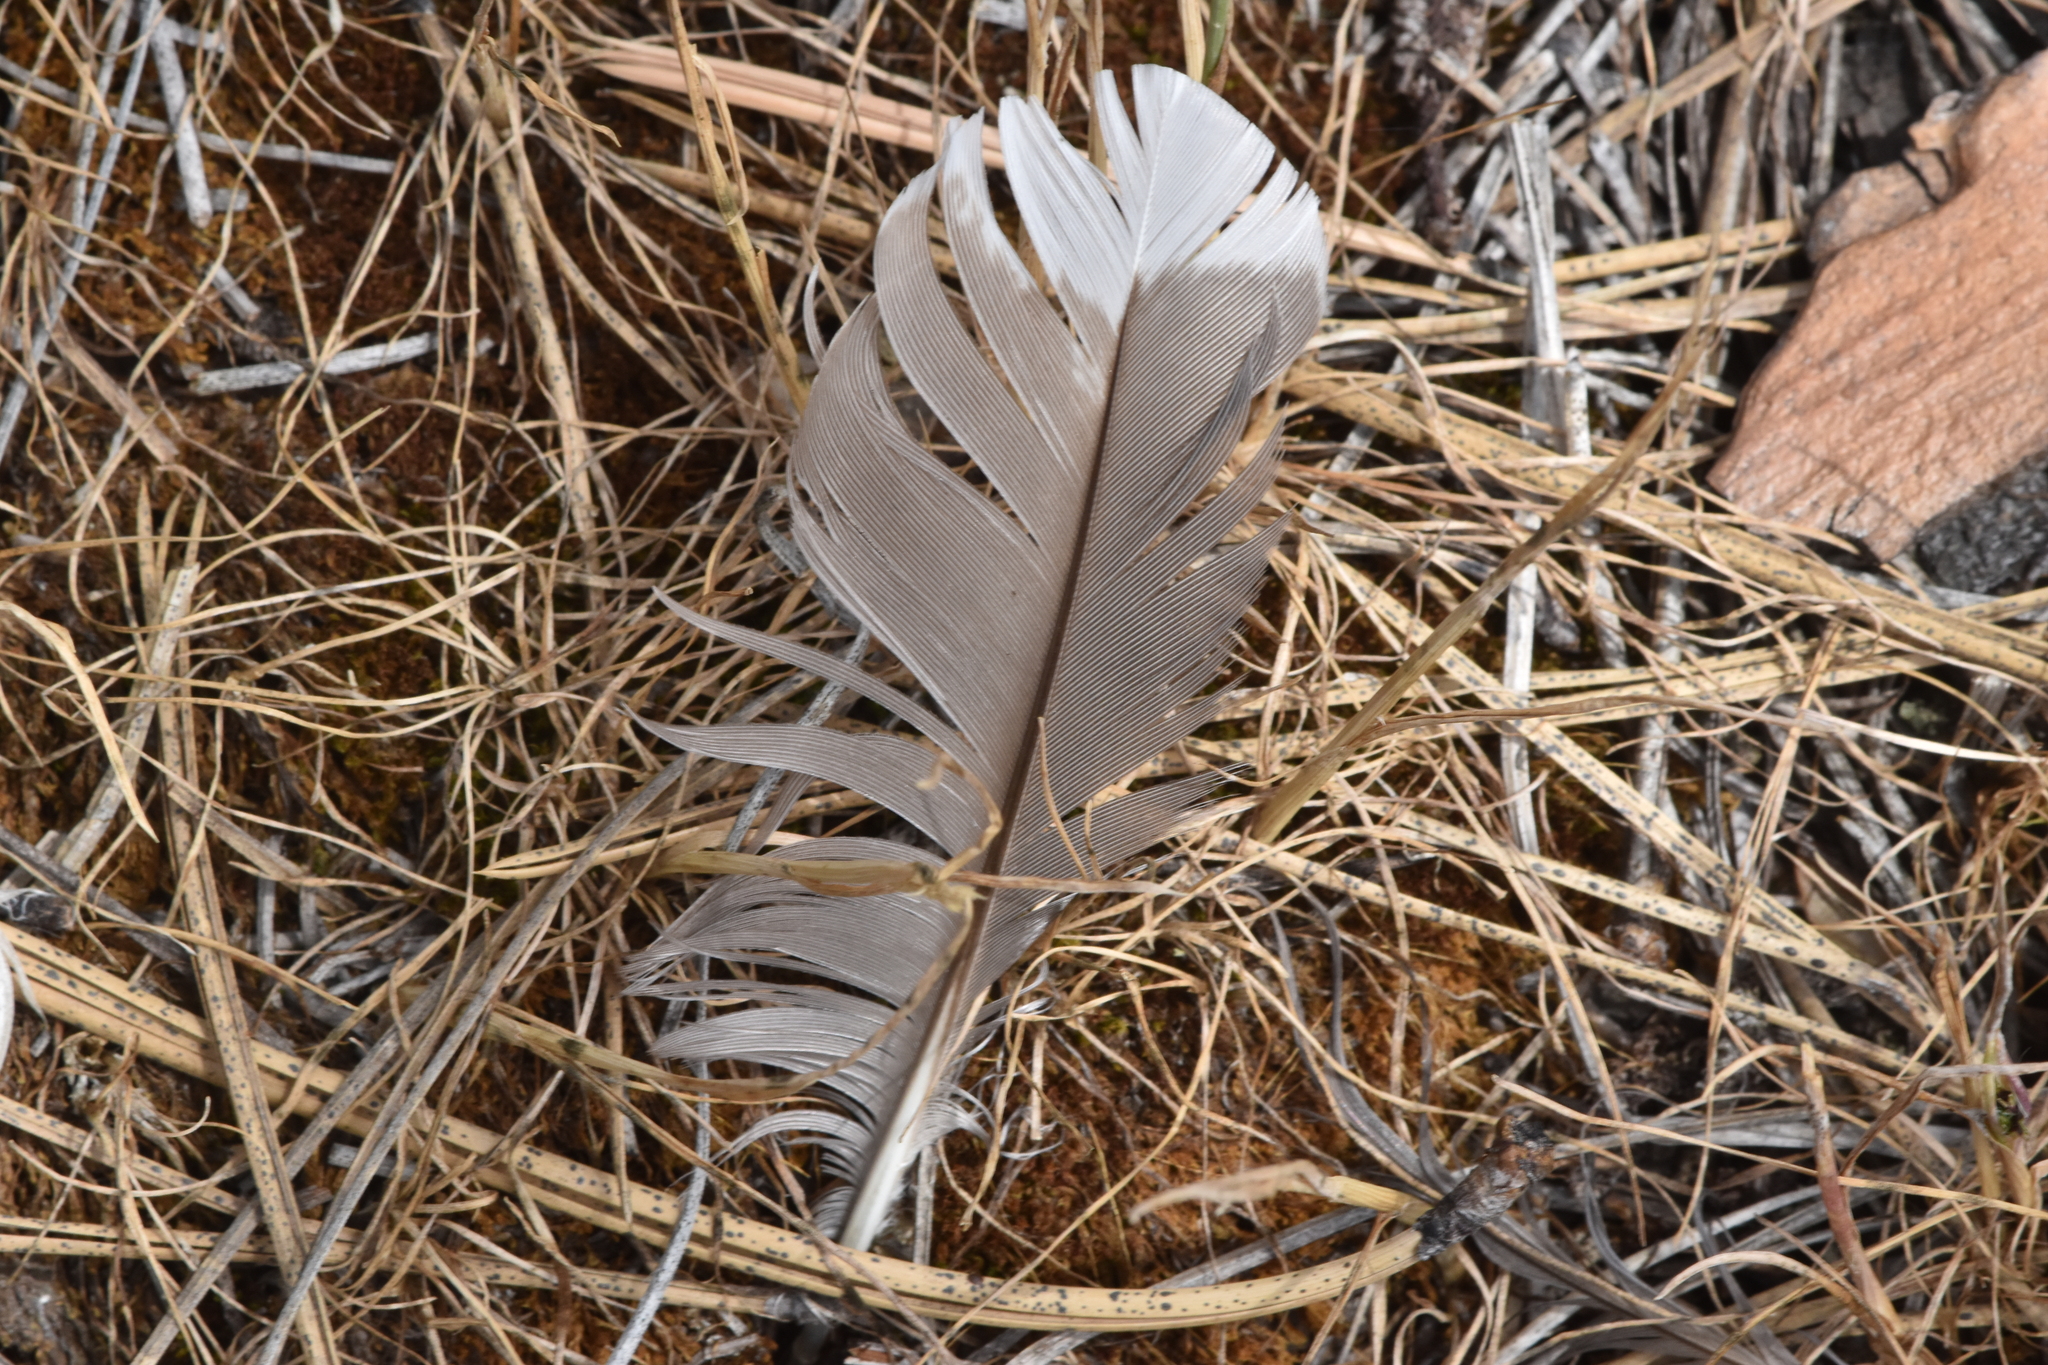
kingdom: Animalia
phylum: Chordata
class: Aves
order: Gruiformes
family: Rallidae
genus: Fulica
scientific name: Fulica americana
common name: American coot
